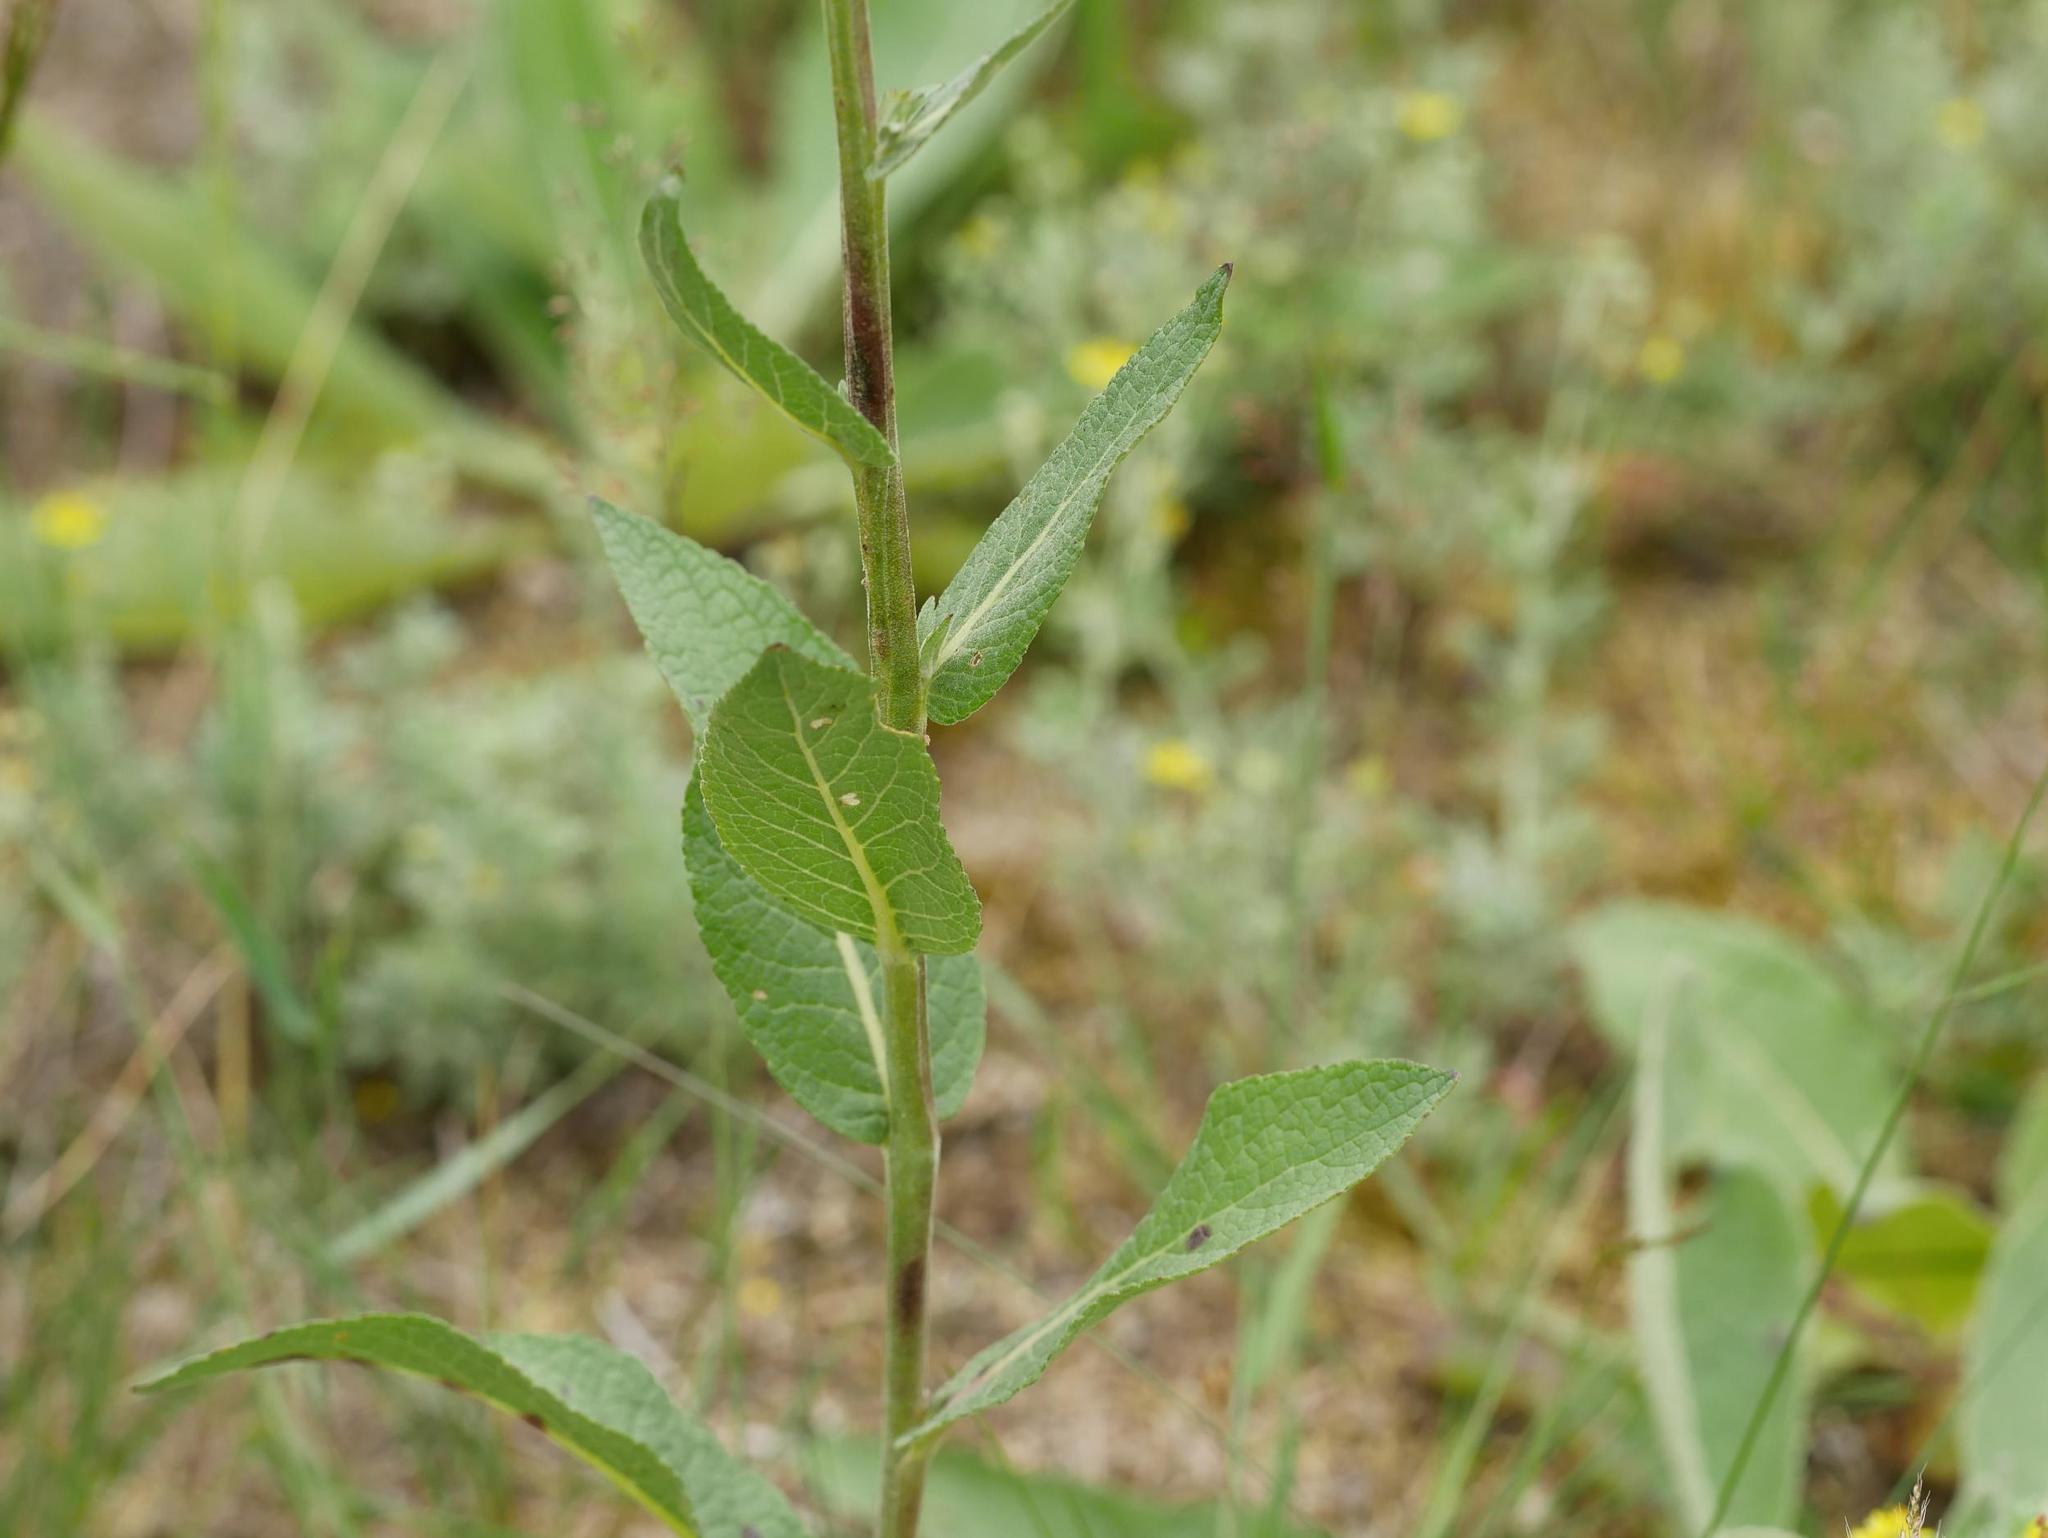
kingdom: Plantae
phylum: Tracheophyta
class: Magnoliopsida
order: Lamiales
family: Scrophulariaceae
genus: Verbascum
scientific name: Verbascum lychnitis
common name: White mullein
